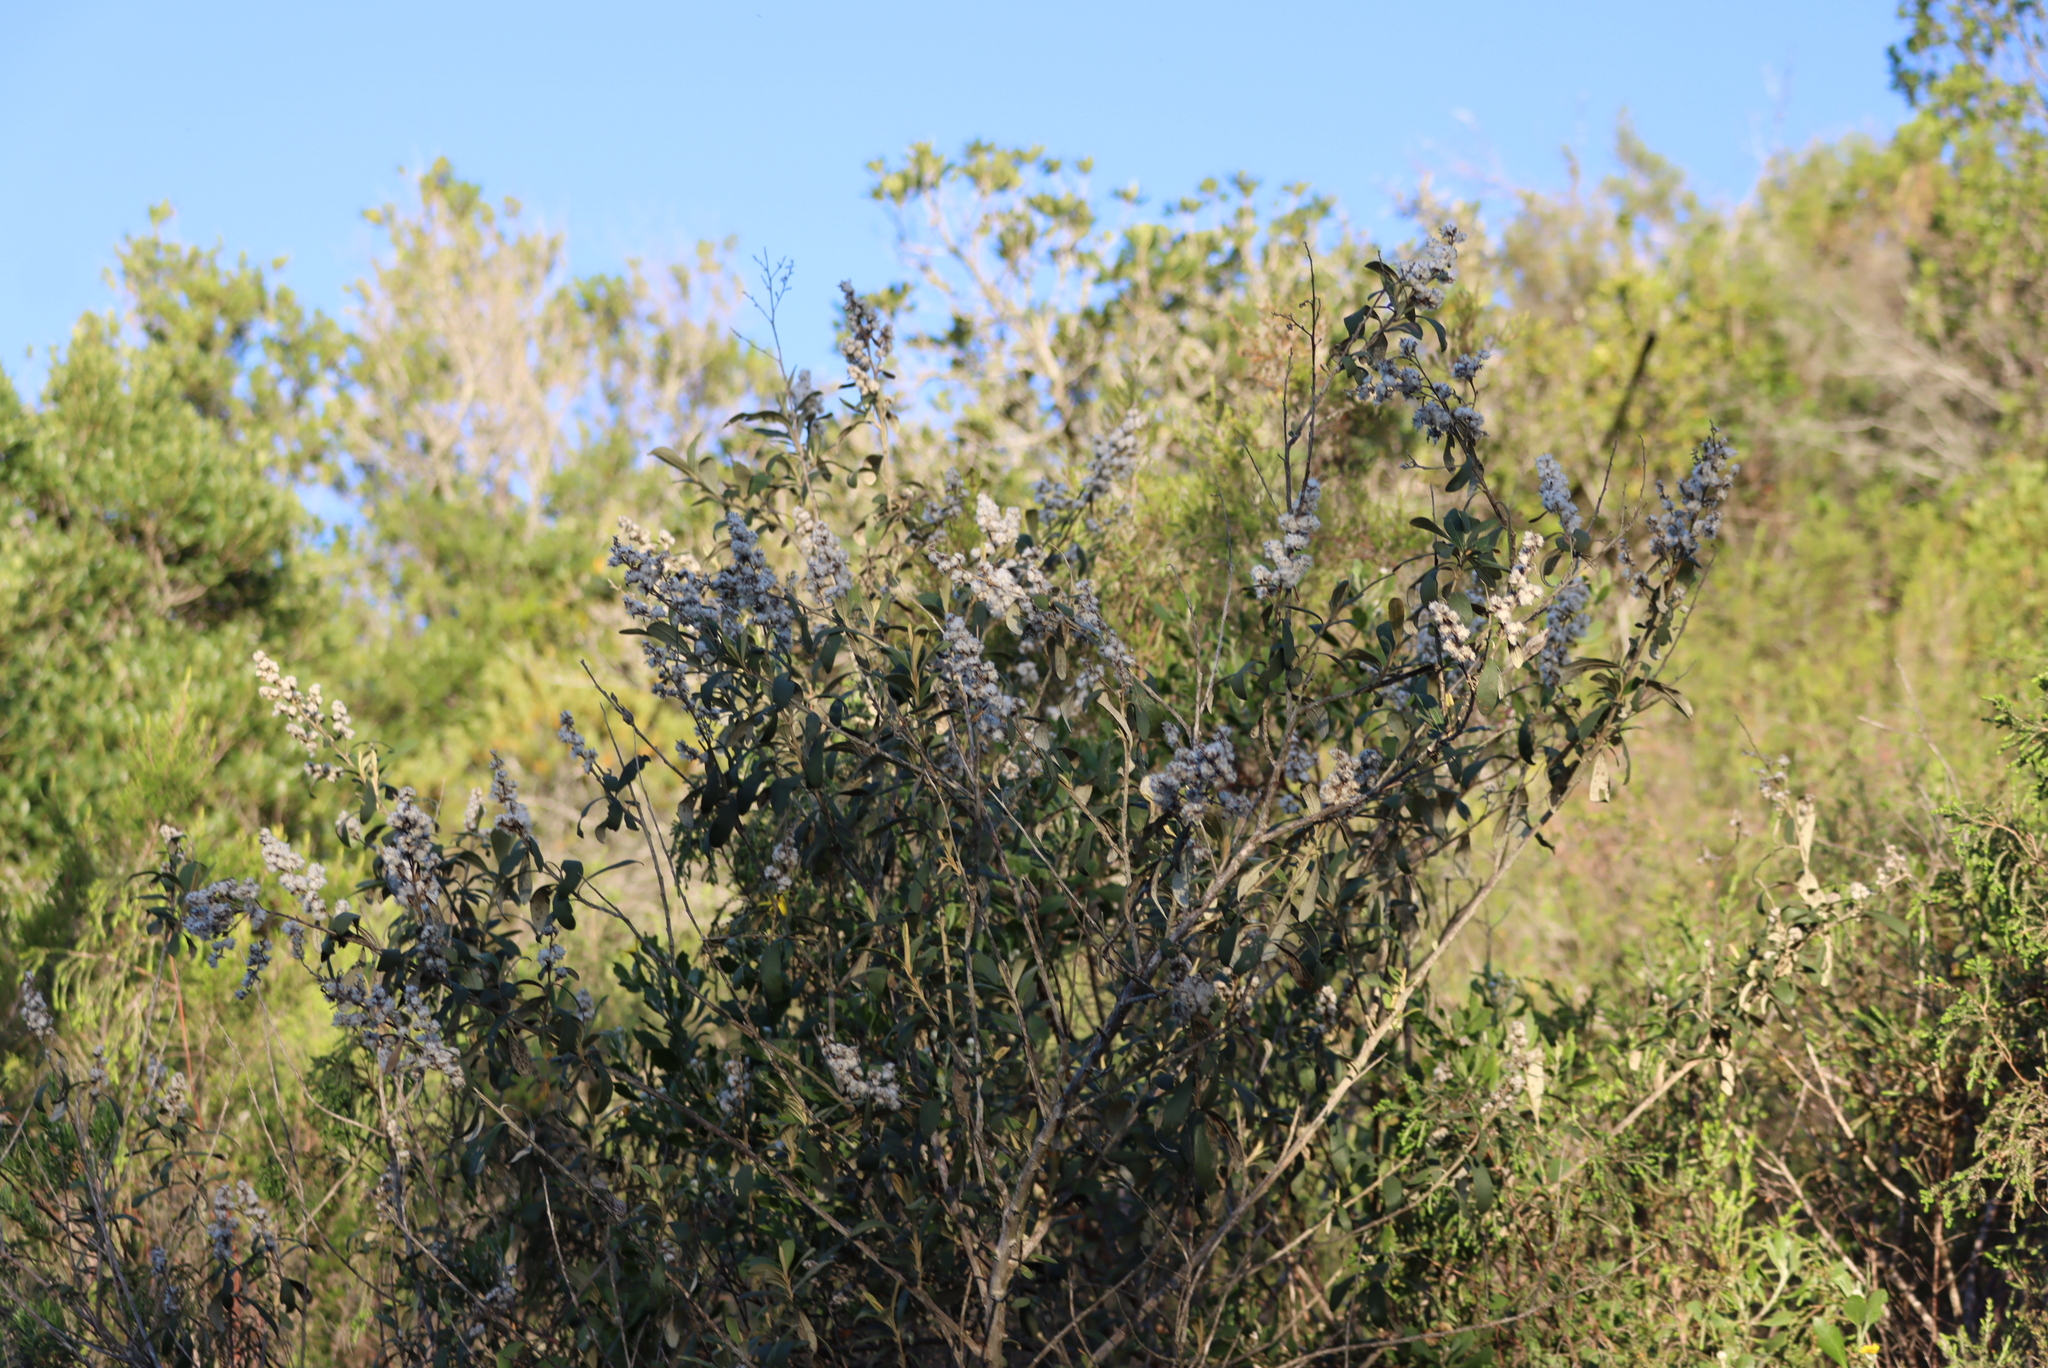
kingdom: Plantae
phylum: Tracheophyta
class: Magnoliopsida
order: Asterales
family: Asteraceae
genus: Tarchonanthus
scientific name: Tarchonanthus littoralis
